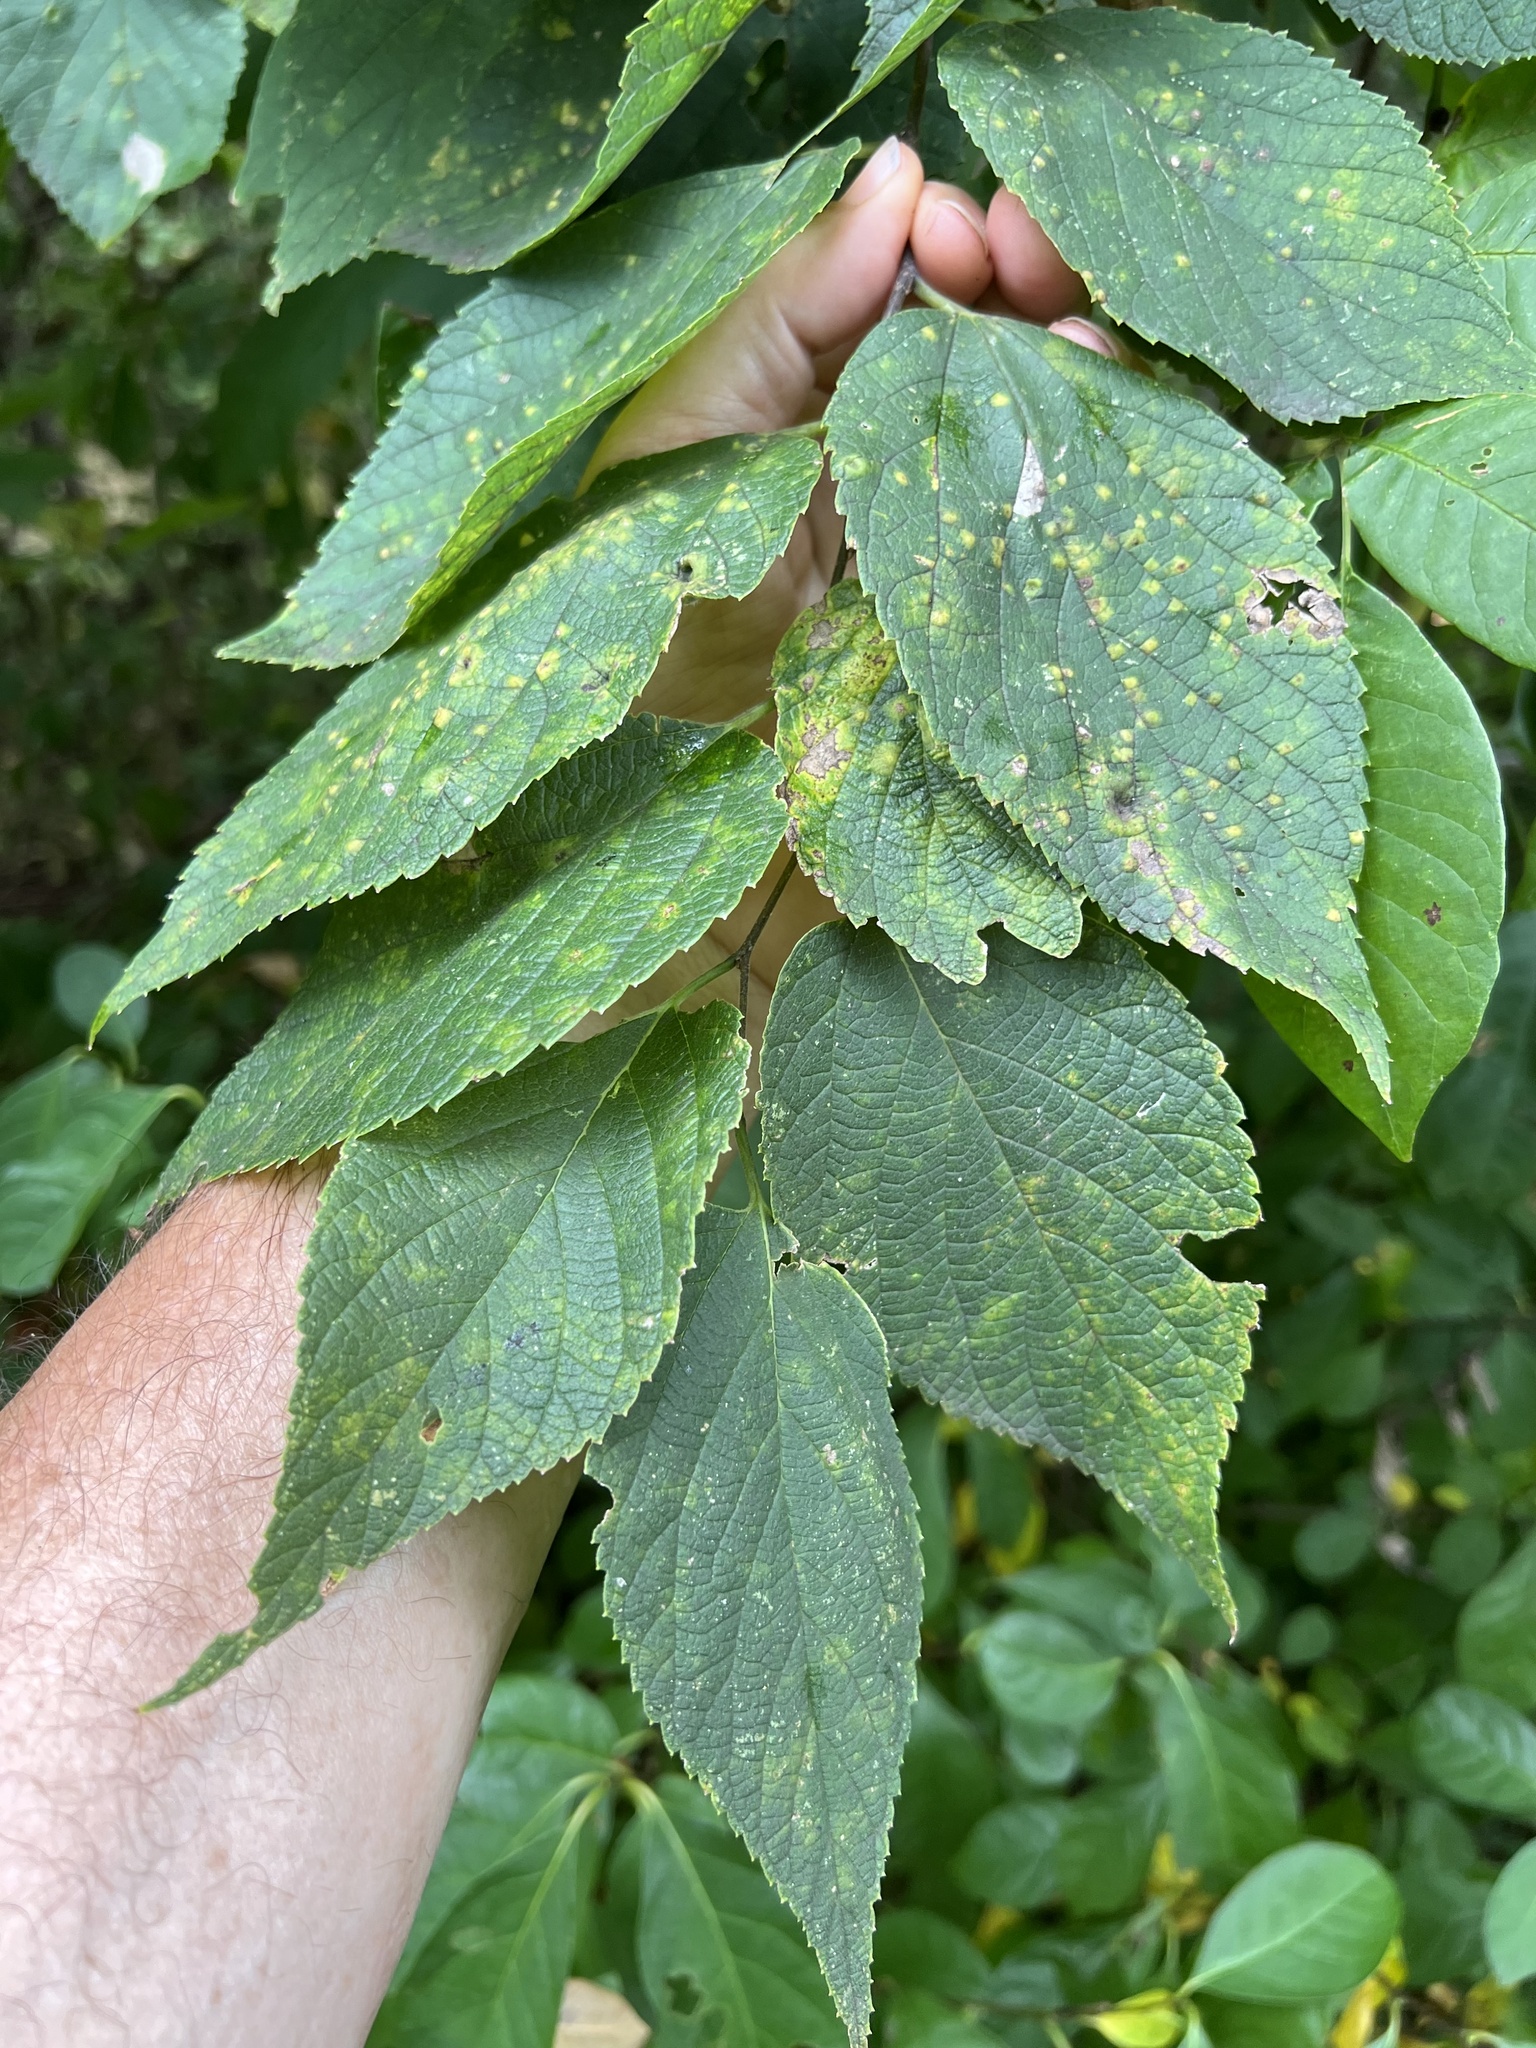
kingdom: Animalia
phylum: Arthropoda
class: Insecta
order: Hemiptera
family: Aphalaridae
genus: Pachypsylla
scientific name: Pachypsylla celtidisvesicula
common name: Hackberry blister gall psyllid
